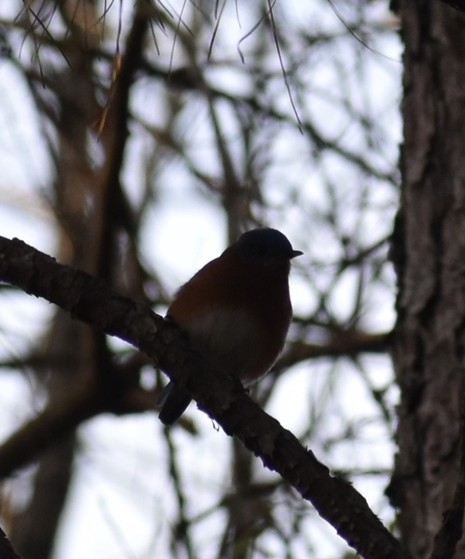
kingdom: Animalia
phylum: Chordata
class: Aves
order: Passeriformes
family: Turdidae
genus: Sialia
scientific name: Sialia sialis
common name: Eastern bluebird
